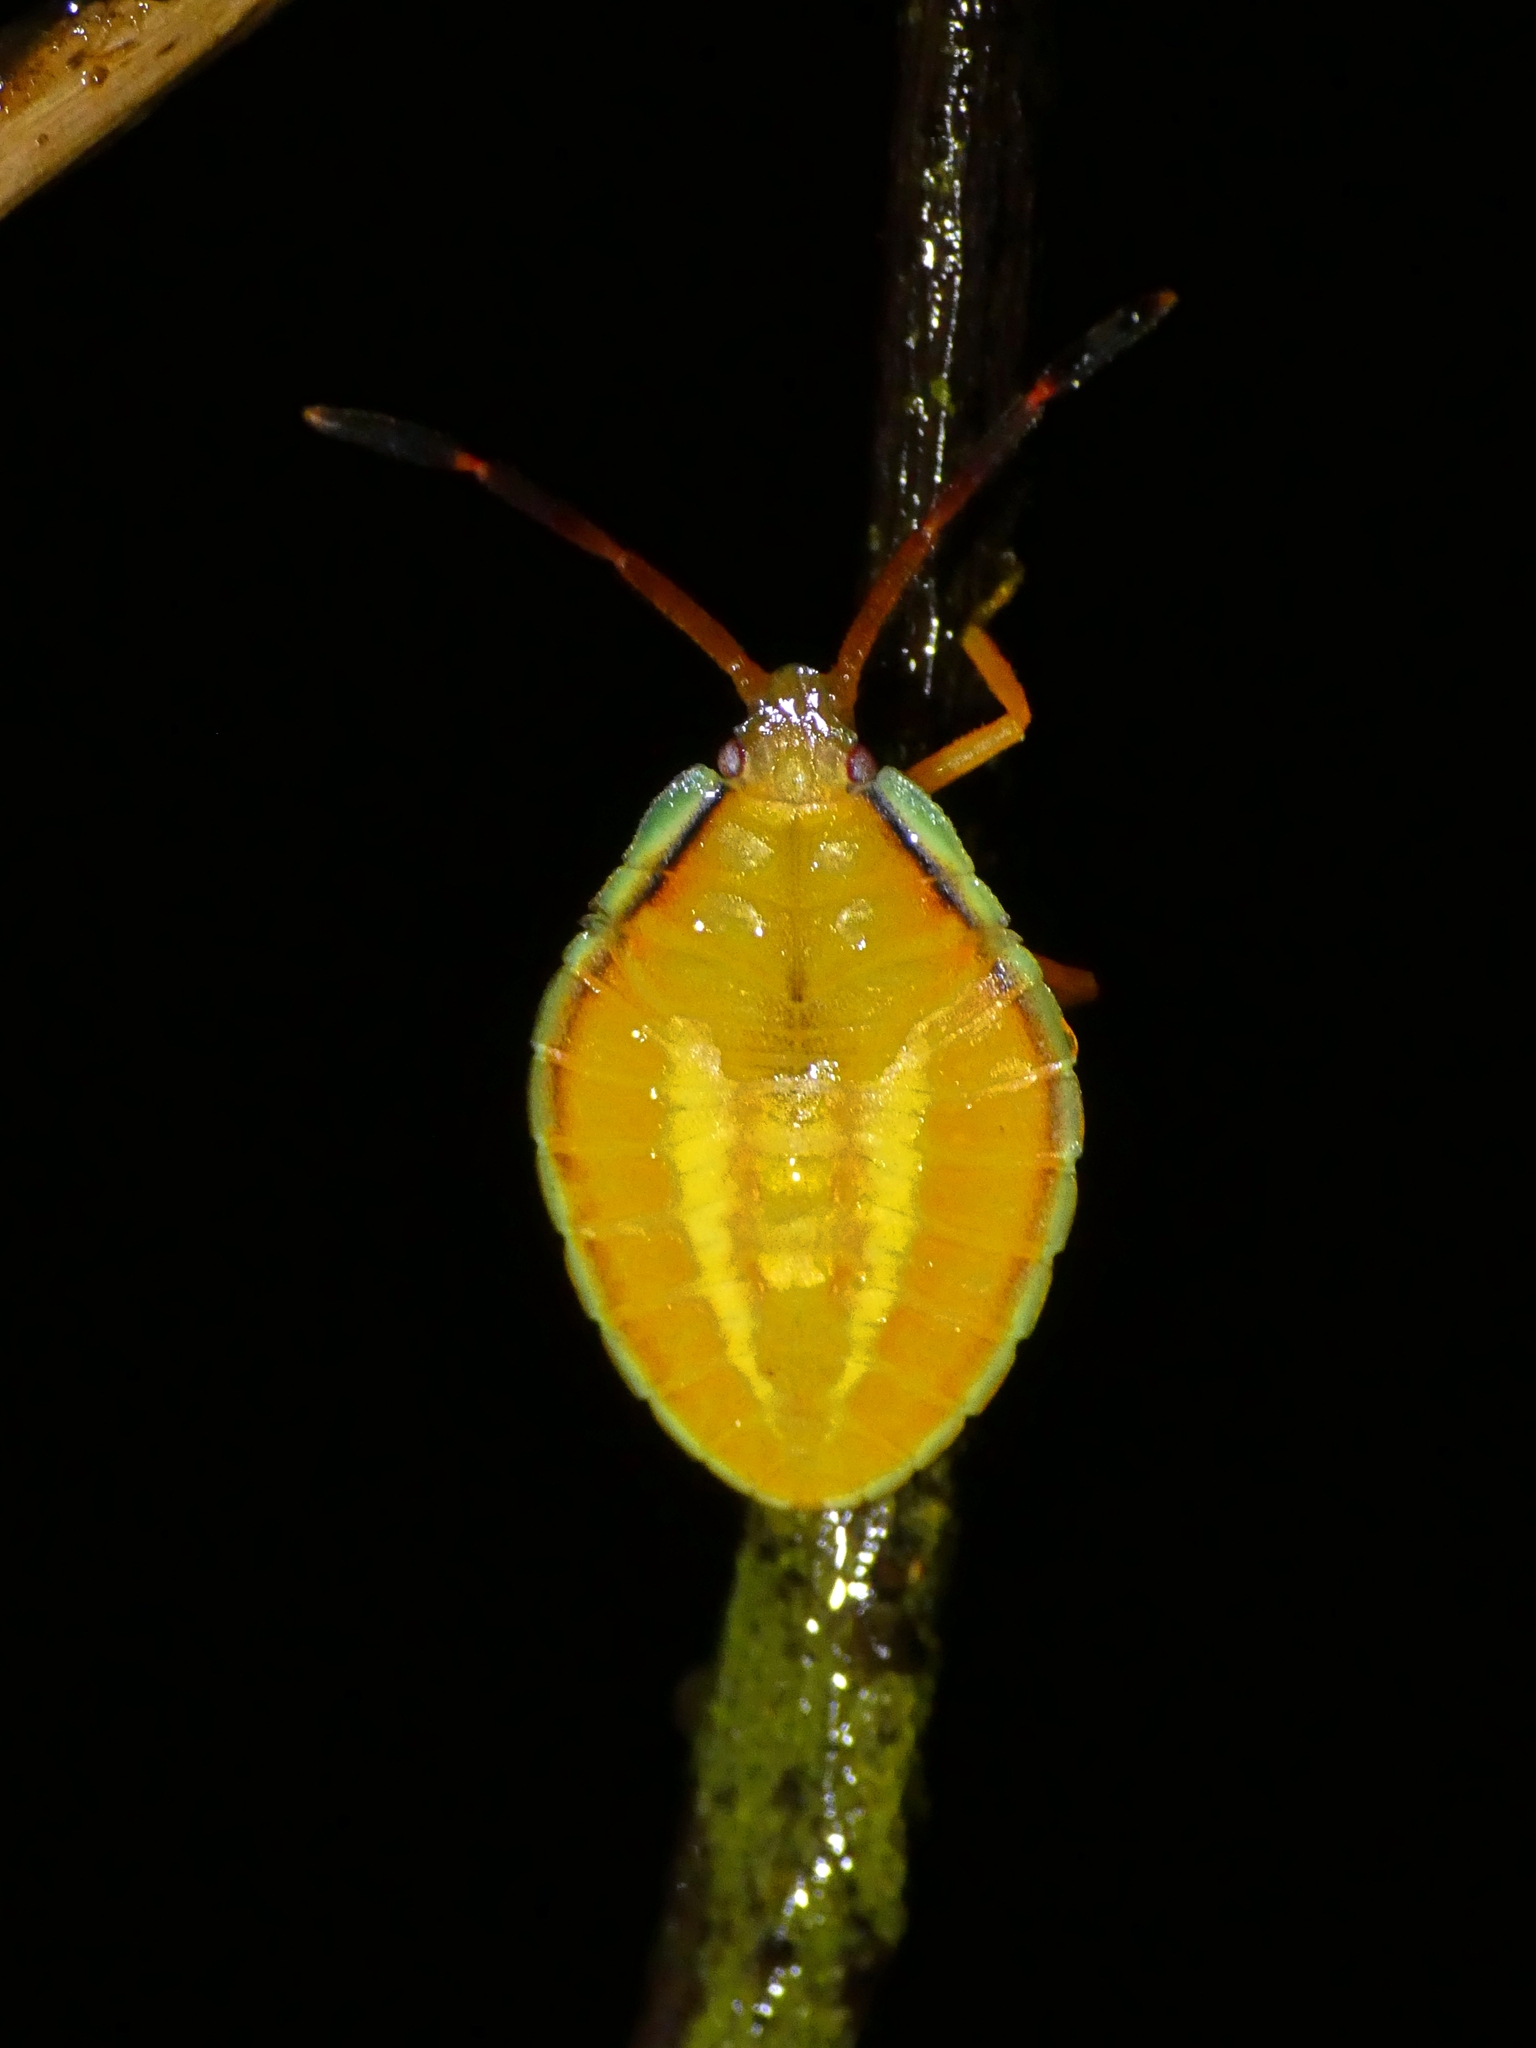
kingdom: Animalia
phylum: Arthropoda
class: Insecta
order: Hemiptera
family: Tessaratomidae
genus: Agapophyta
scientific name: Agapophyta bipunctata
